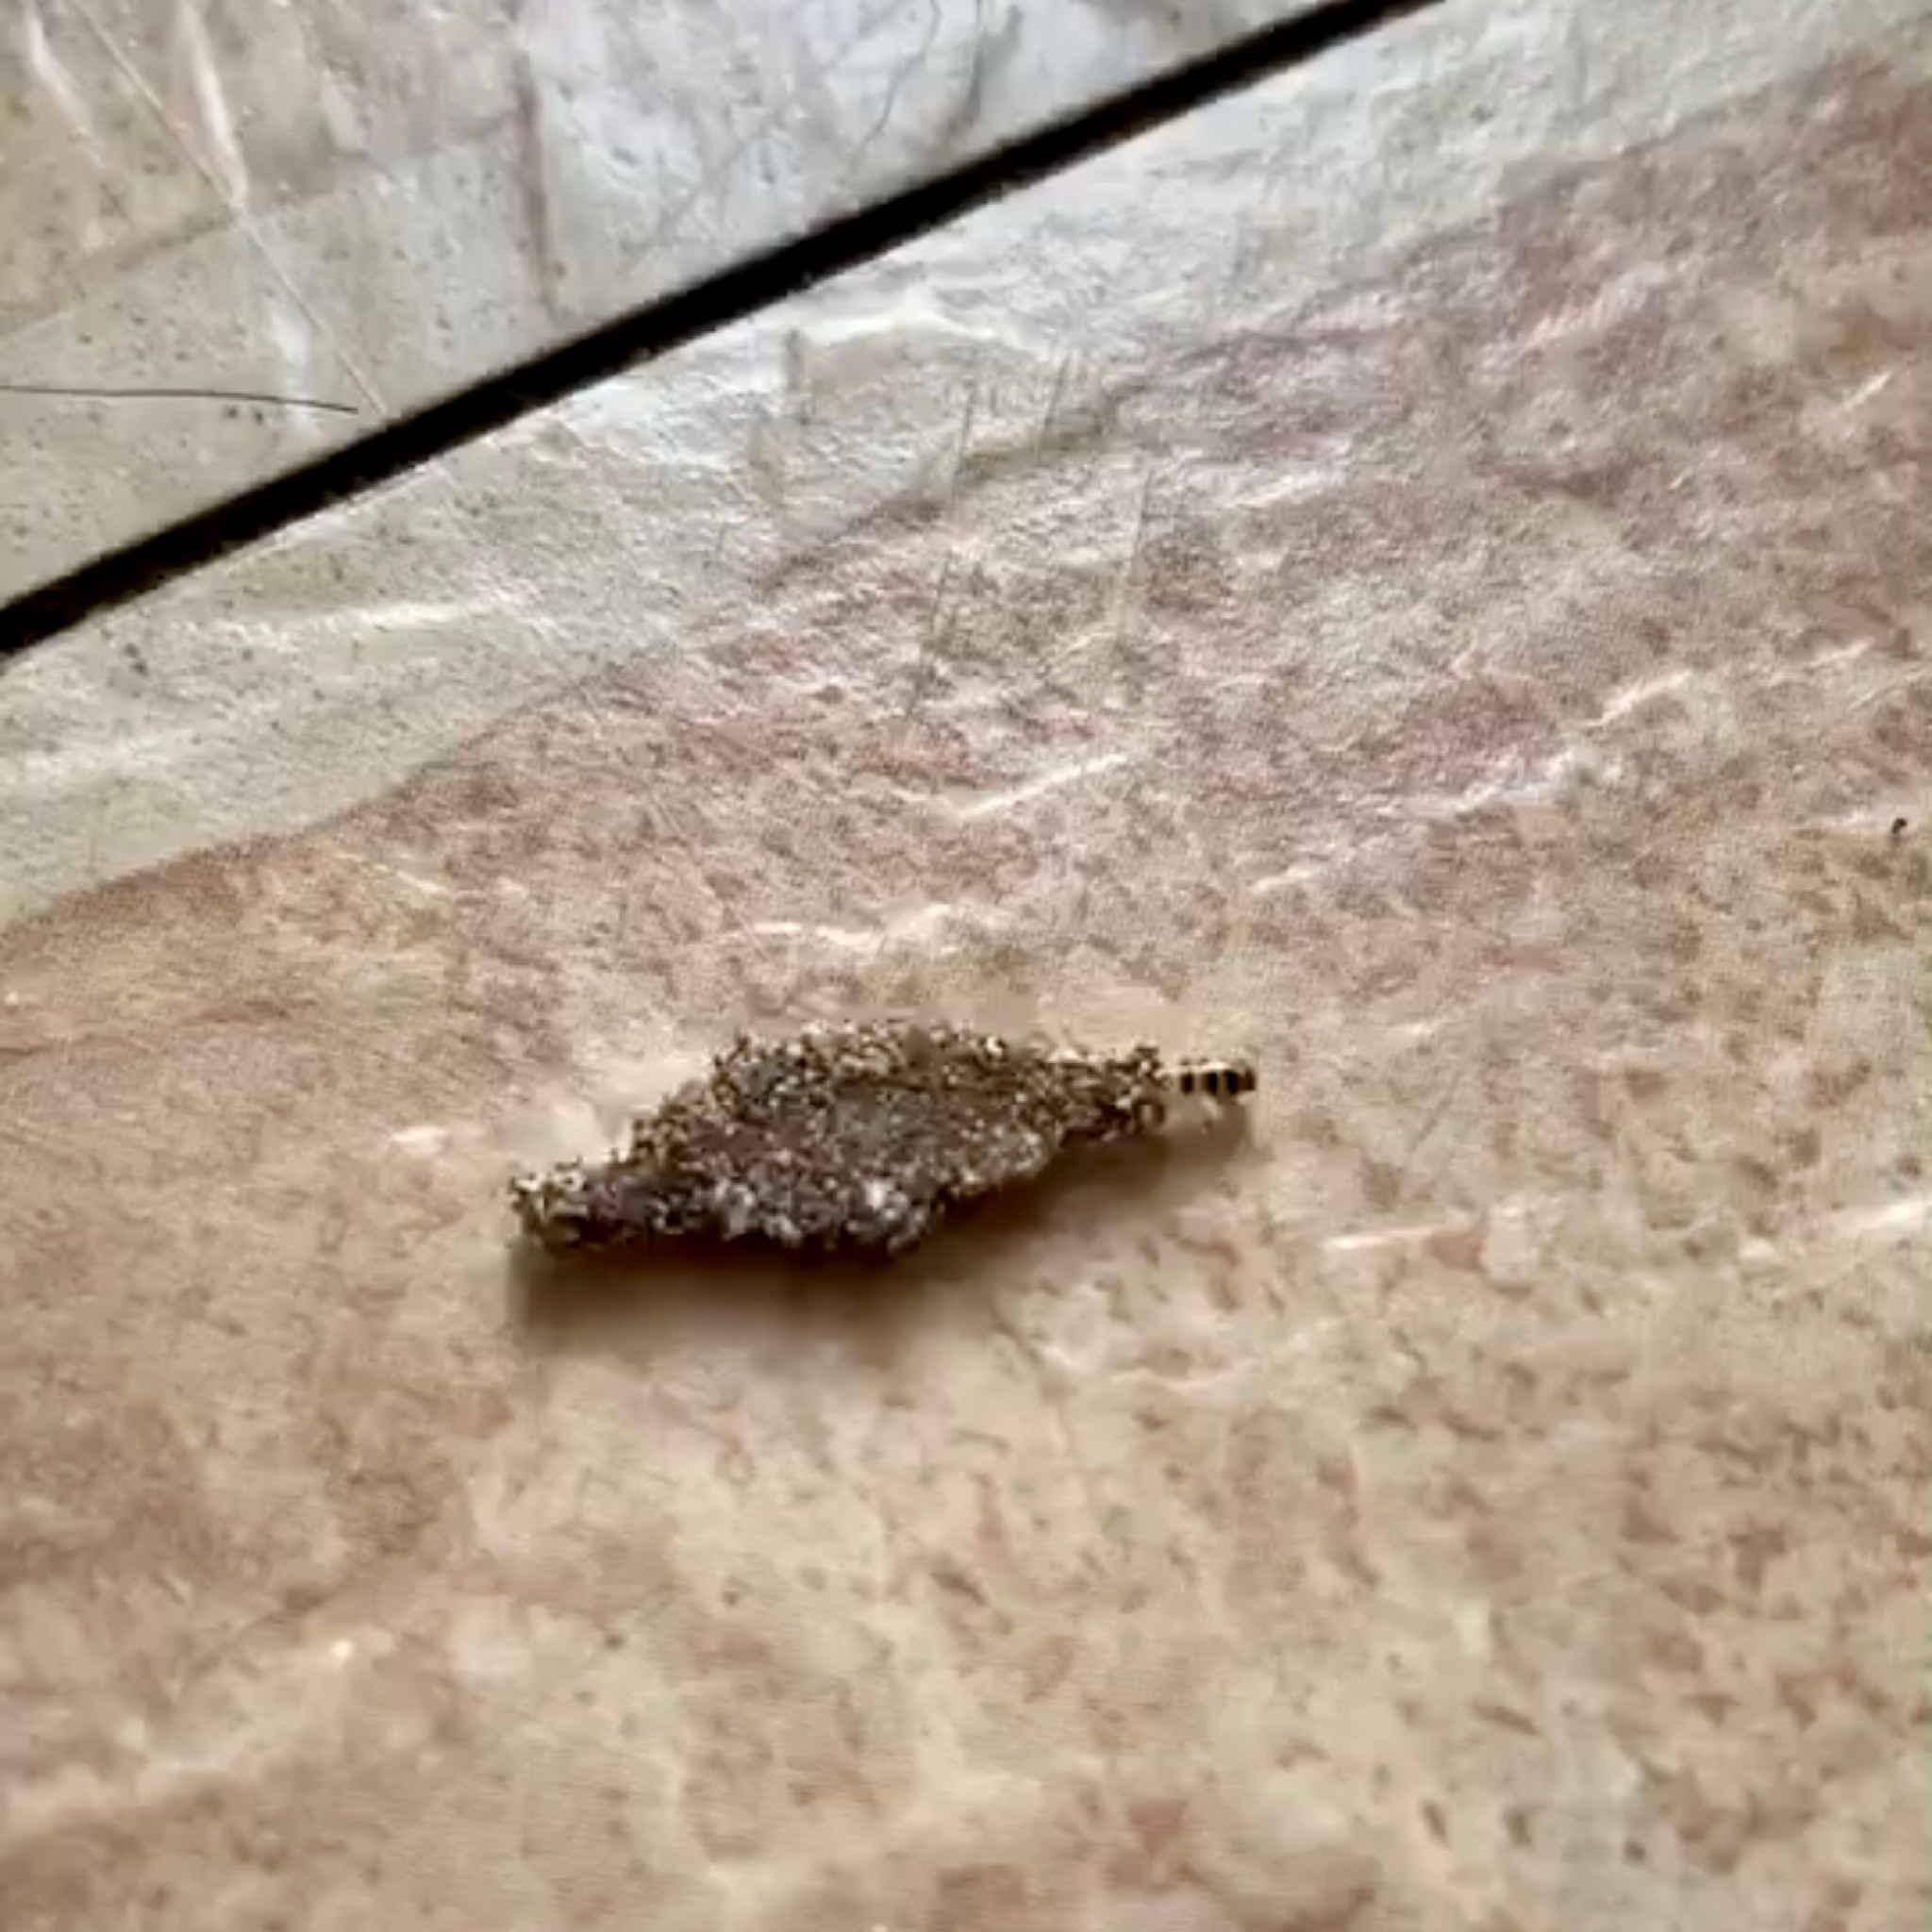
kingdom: Animalia
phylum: Arthropoda
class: Insecta
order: Lepidoptera
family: Tineidae
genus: Phereoeca
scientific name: Phereoeca uterella
